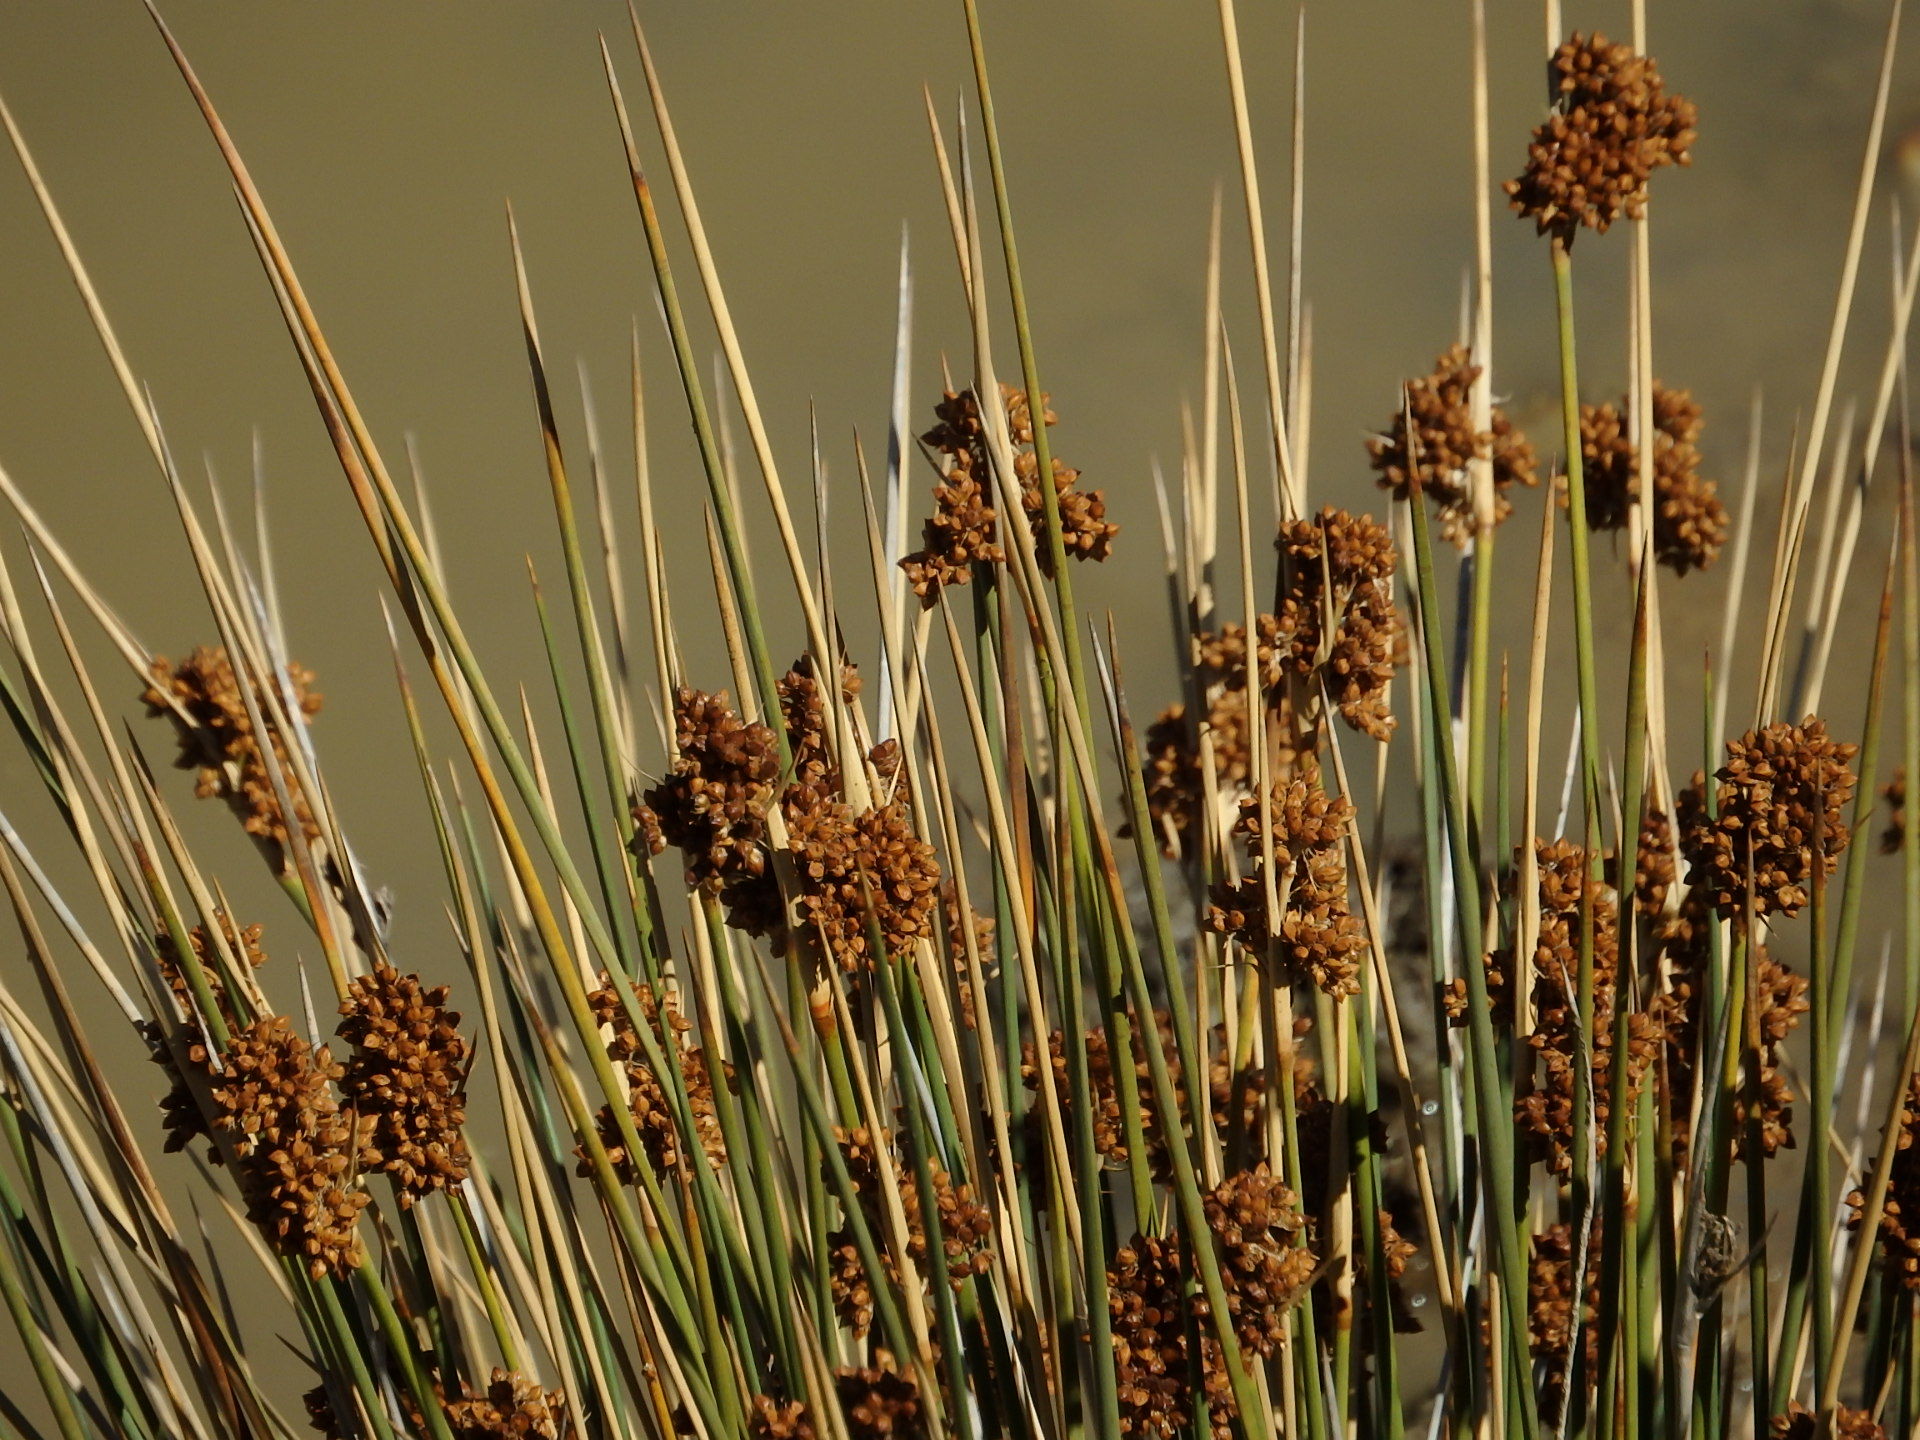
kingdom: Plantae
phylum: Tracheophyta
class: Liliopsida
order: Poales
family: Juncaceae
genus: Juncus
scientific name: Juncus acutus
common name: Sharp rush
